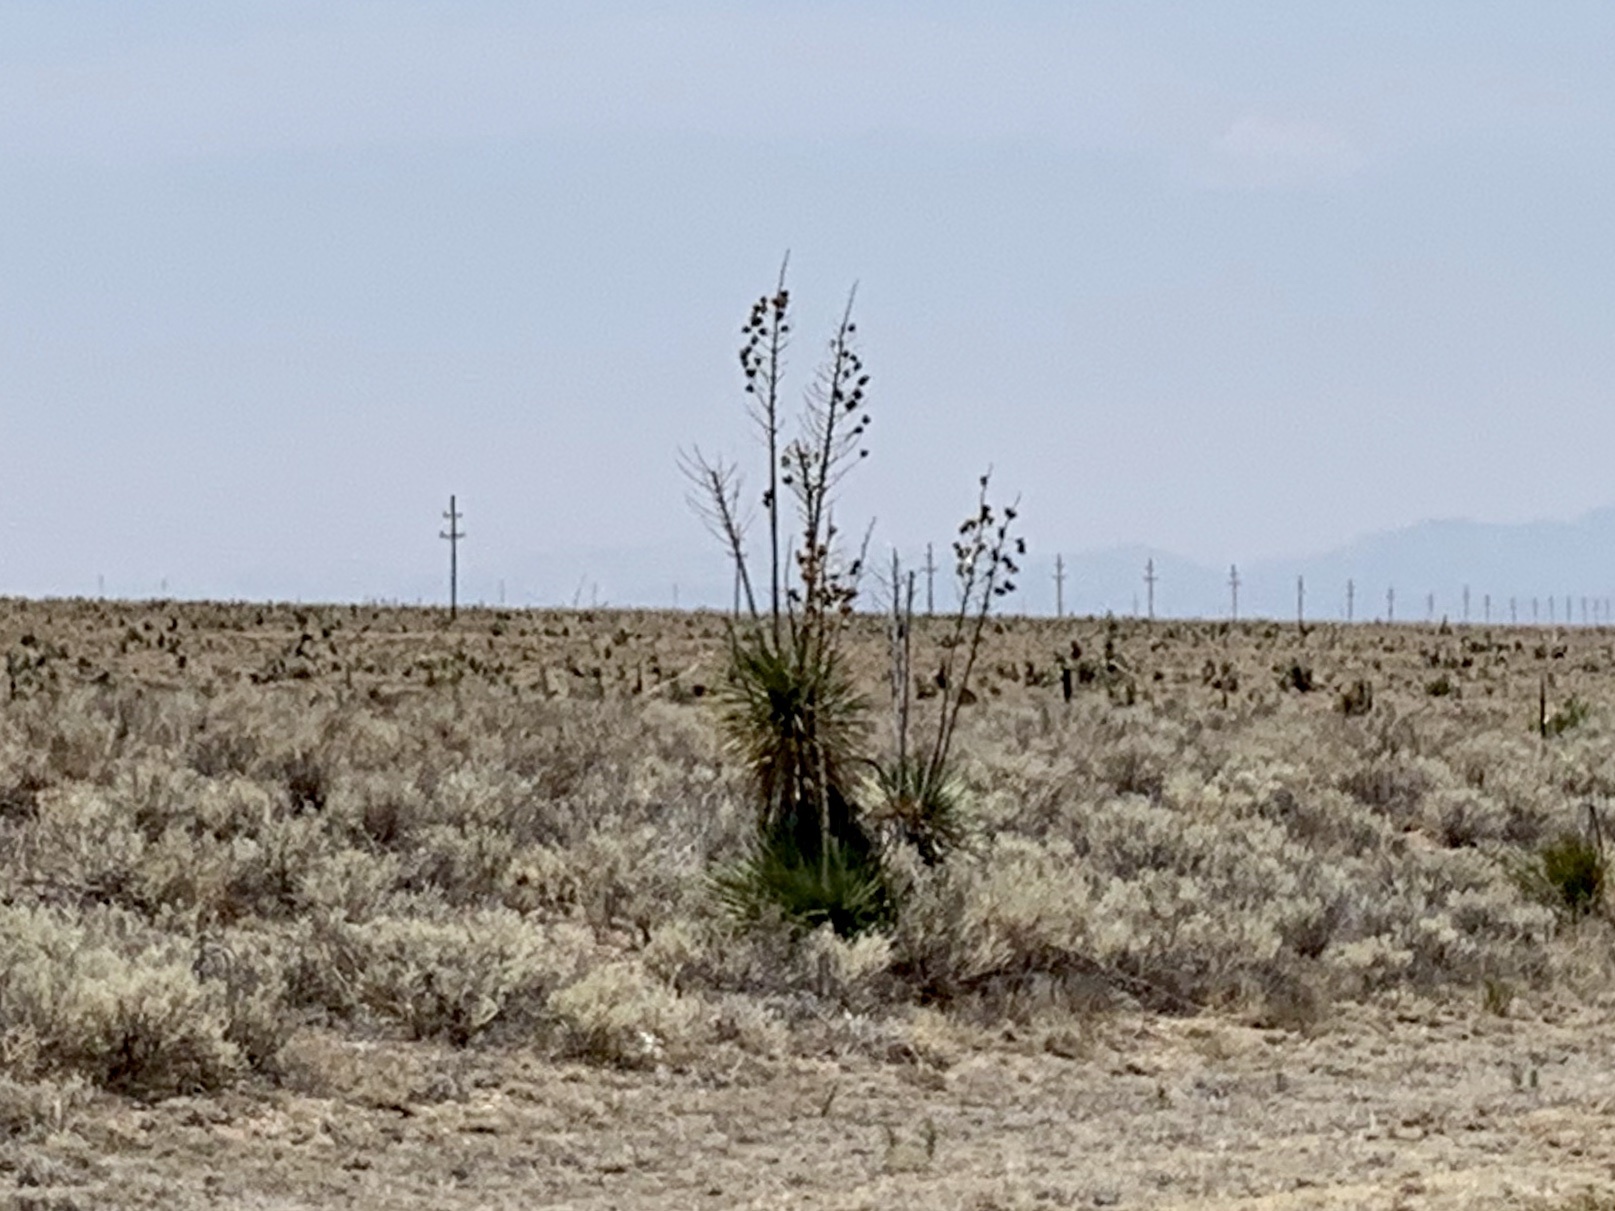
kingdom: Plantae
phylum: Tracheophyta
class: Liliopsida
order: Asparagales
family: Asparagaceae
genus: Yucca
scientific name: Yucca elata
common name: Palmella
